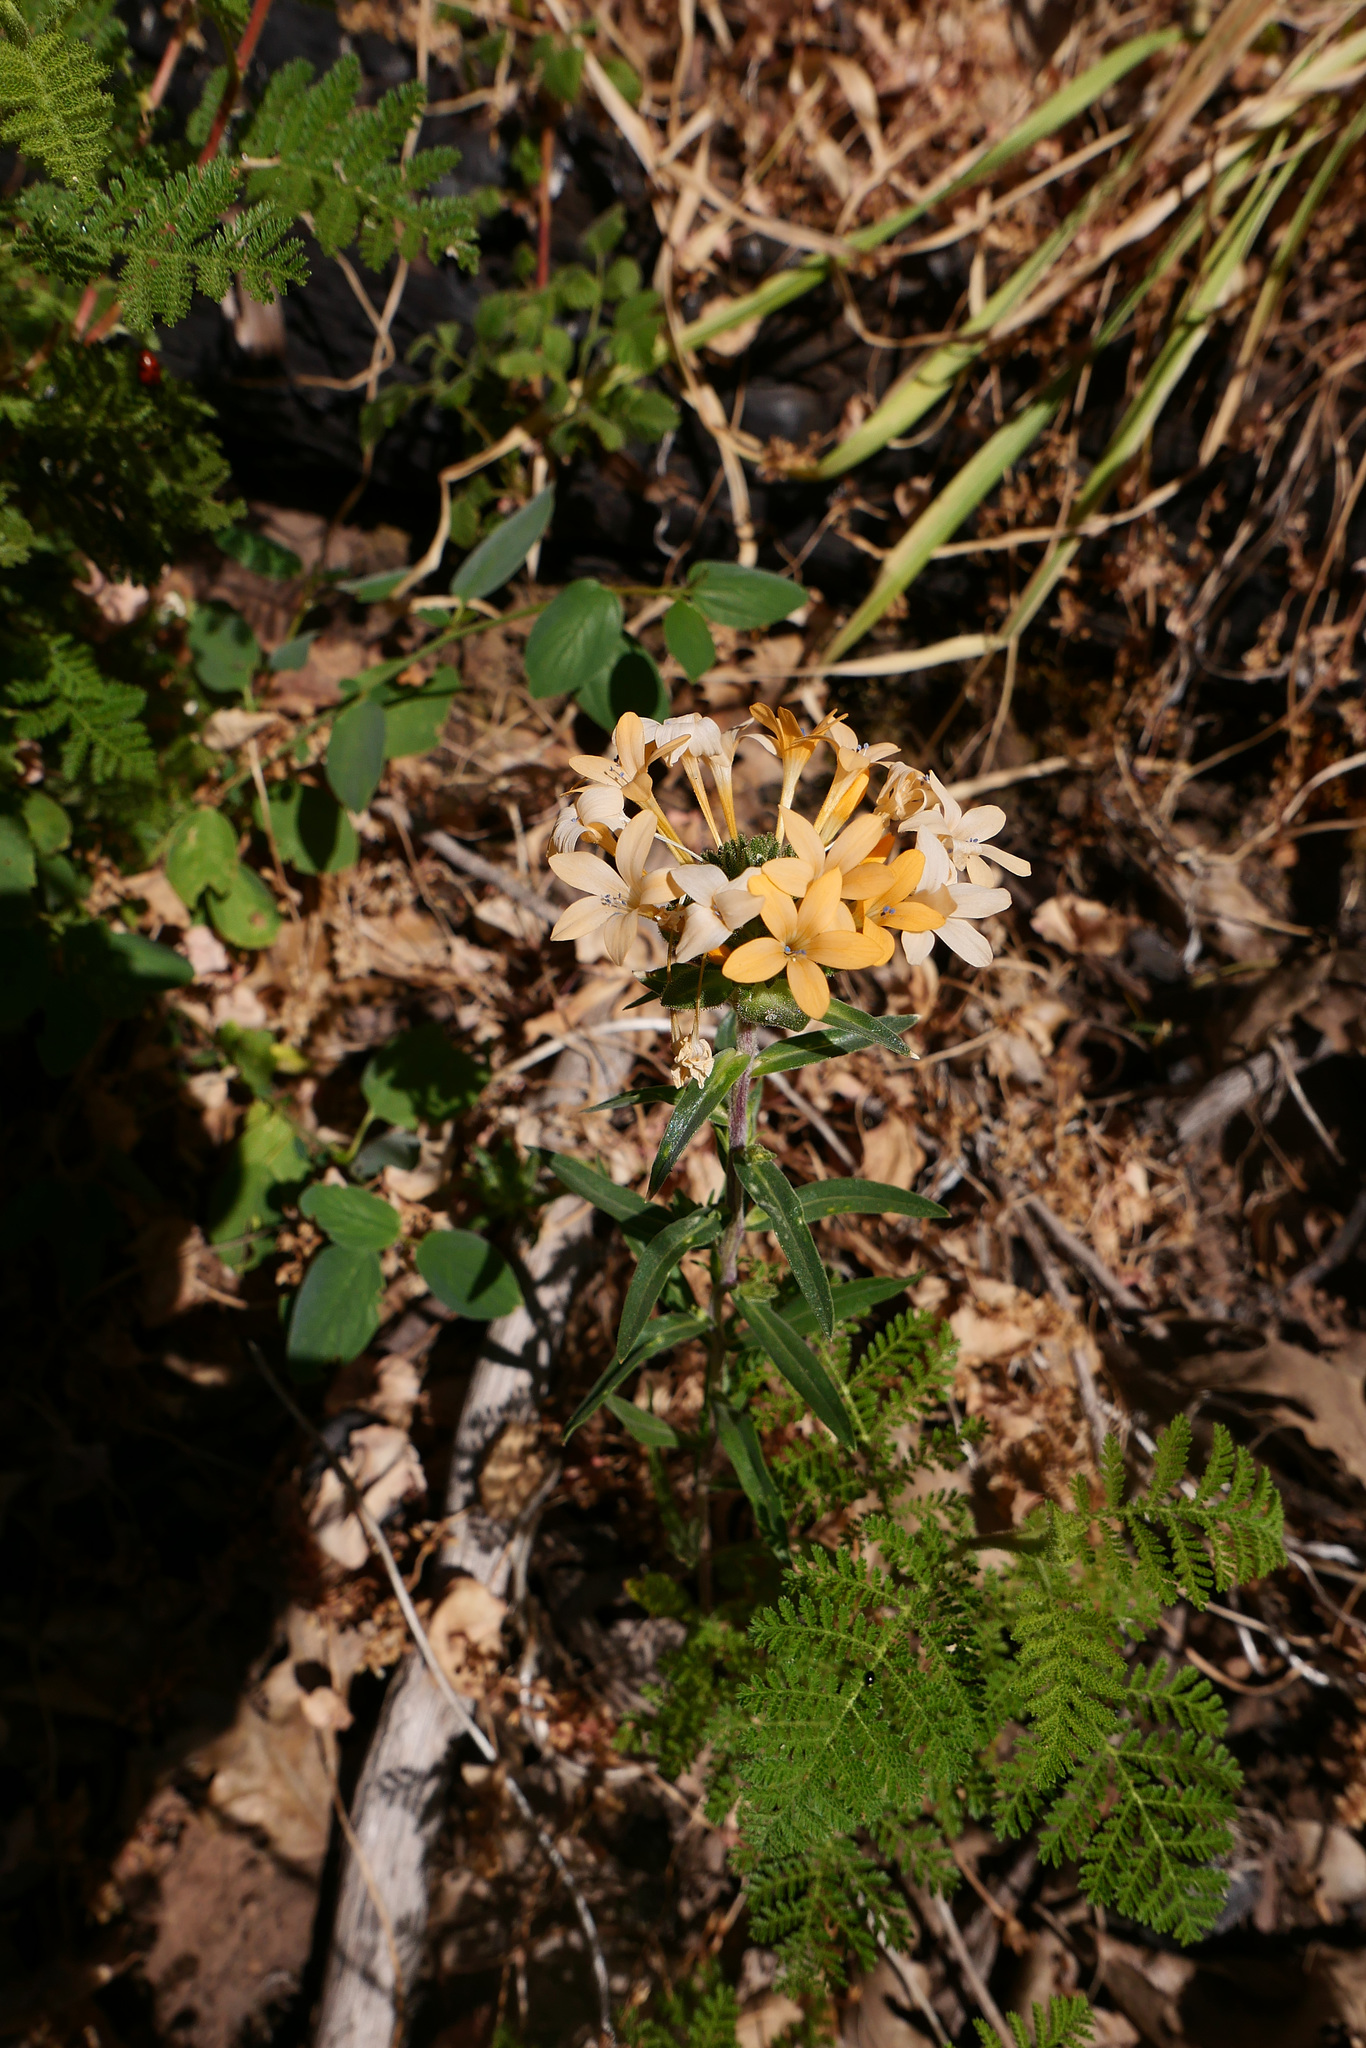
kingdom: Plantae
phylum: Tracheophyta
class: Magnoliopsida
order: Ericales
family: Polemoniaceae
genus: Collomia
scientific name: Collomia grandiflora
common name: California strawflower
